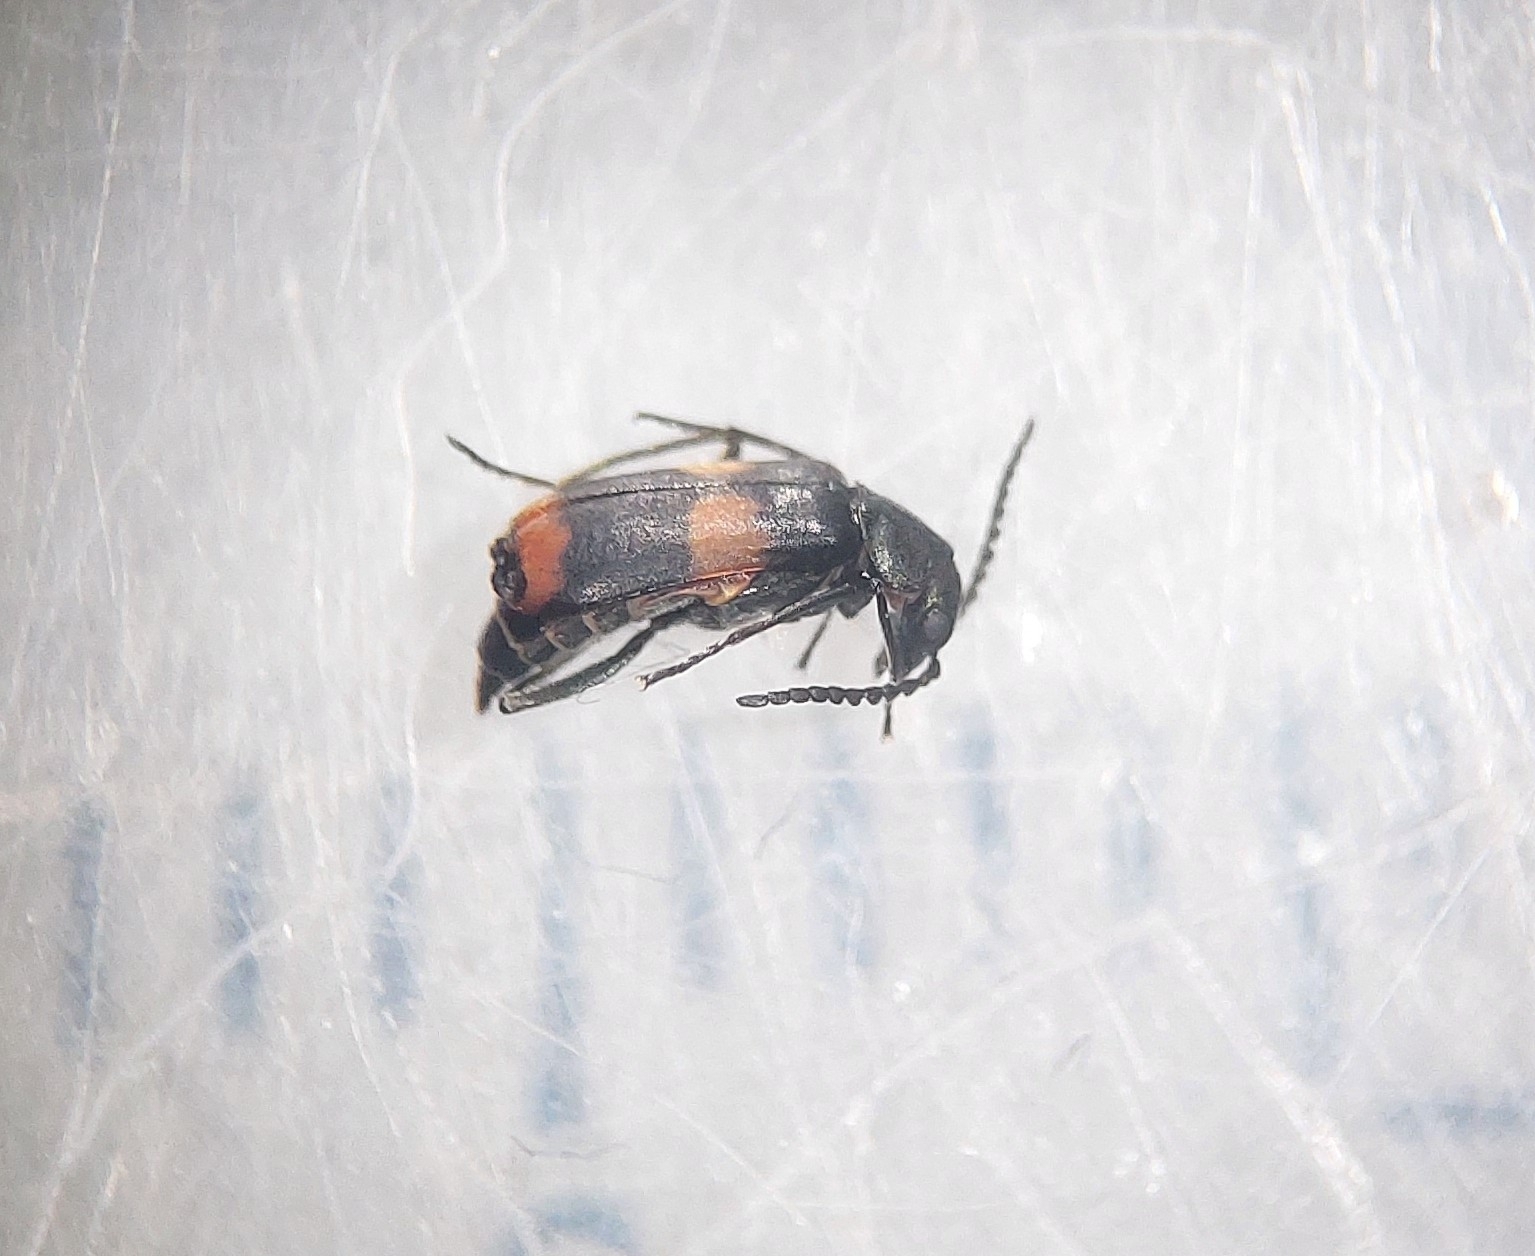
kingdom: Animalia
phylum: Arthropoda
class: Insecta
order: Coleoptera
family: Melyridae
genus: Anthocomus
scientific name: Anthocomus fasciatus
